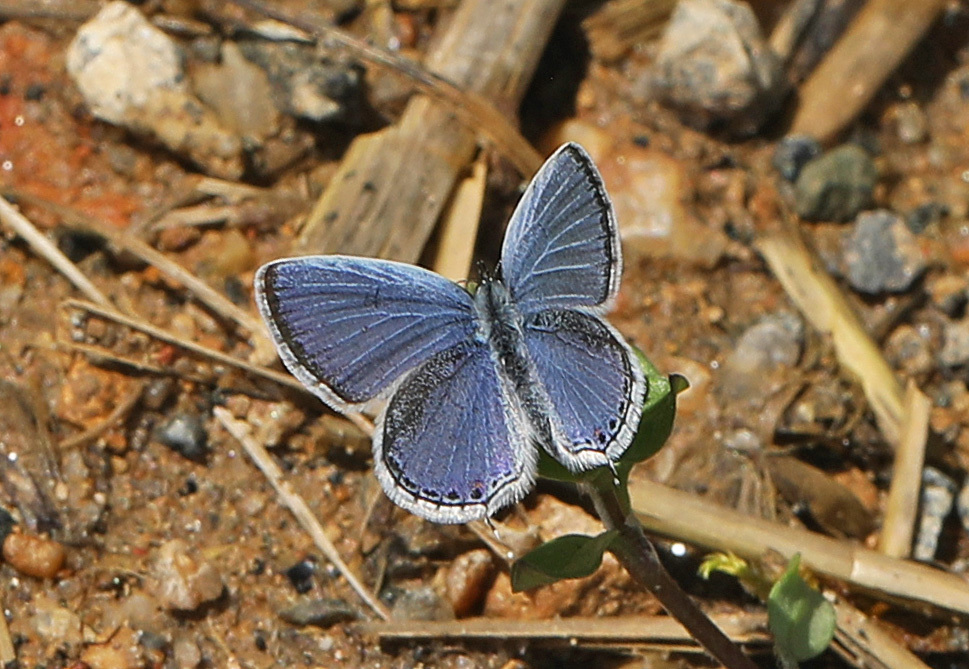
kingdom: Animalia
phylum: Arthropoda
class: Insecta
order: Lepidoptera
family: Lycaenidae
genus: Elkalyce
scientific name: Elkalyce comyntas
